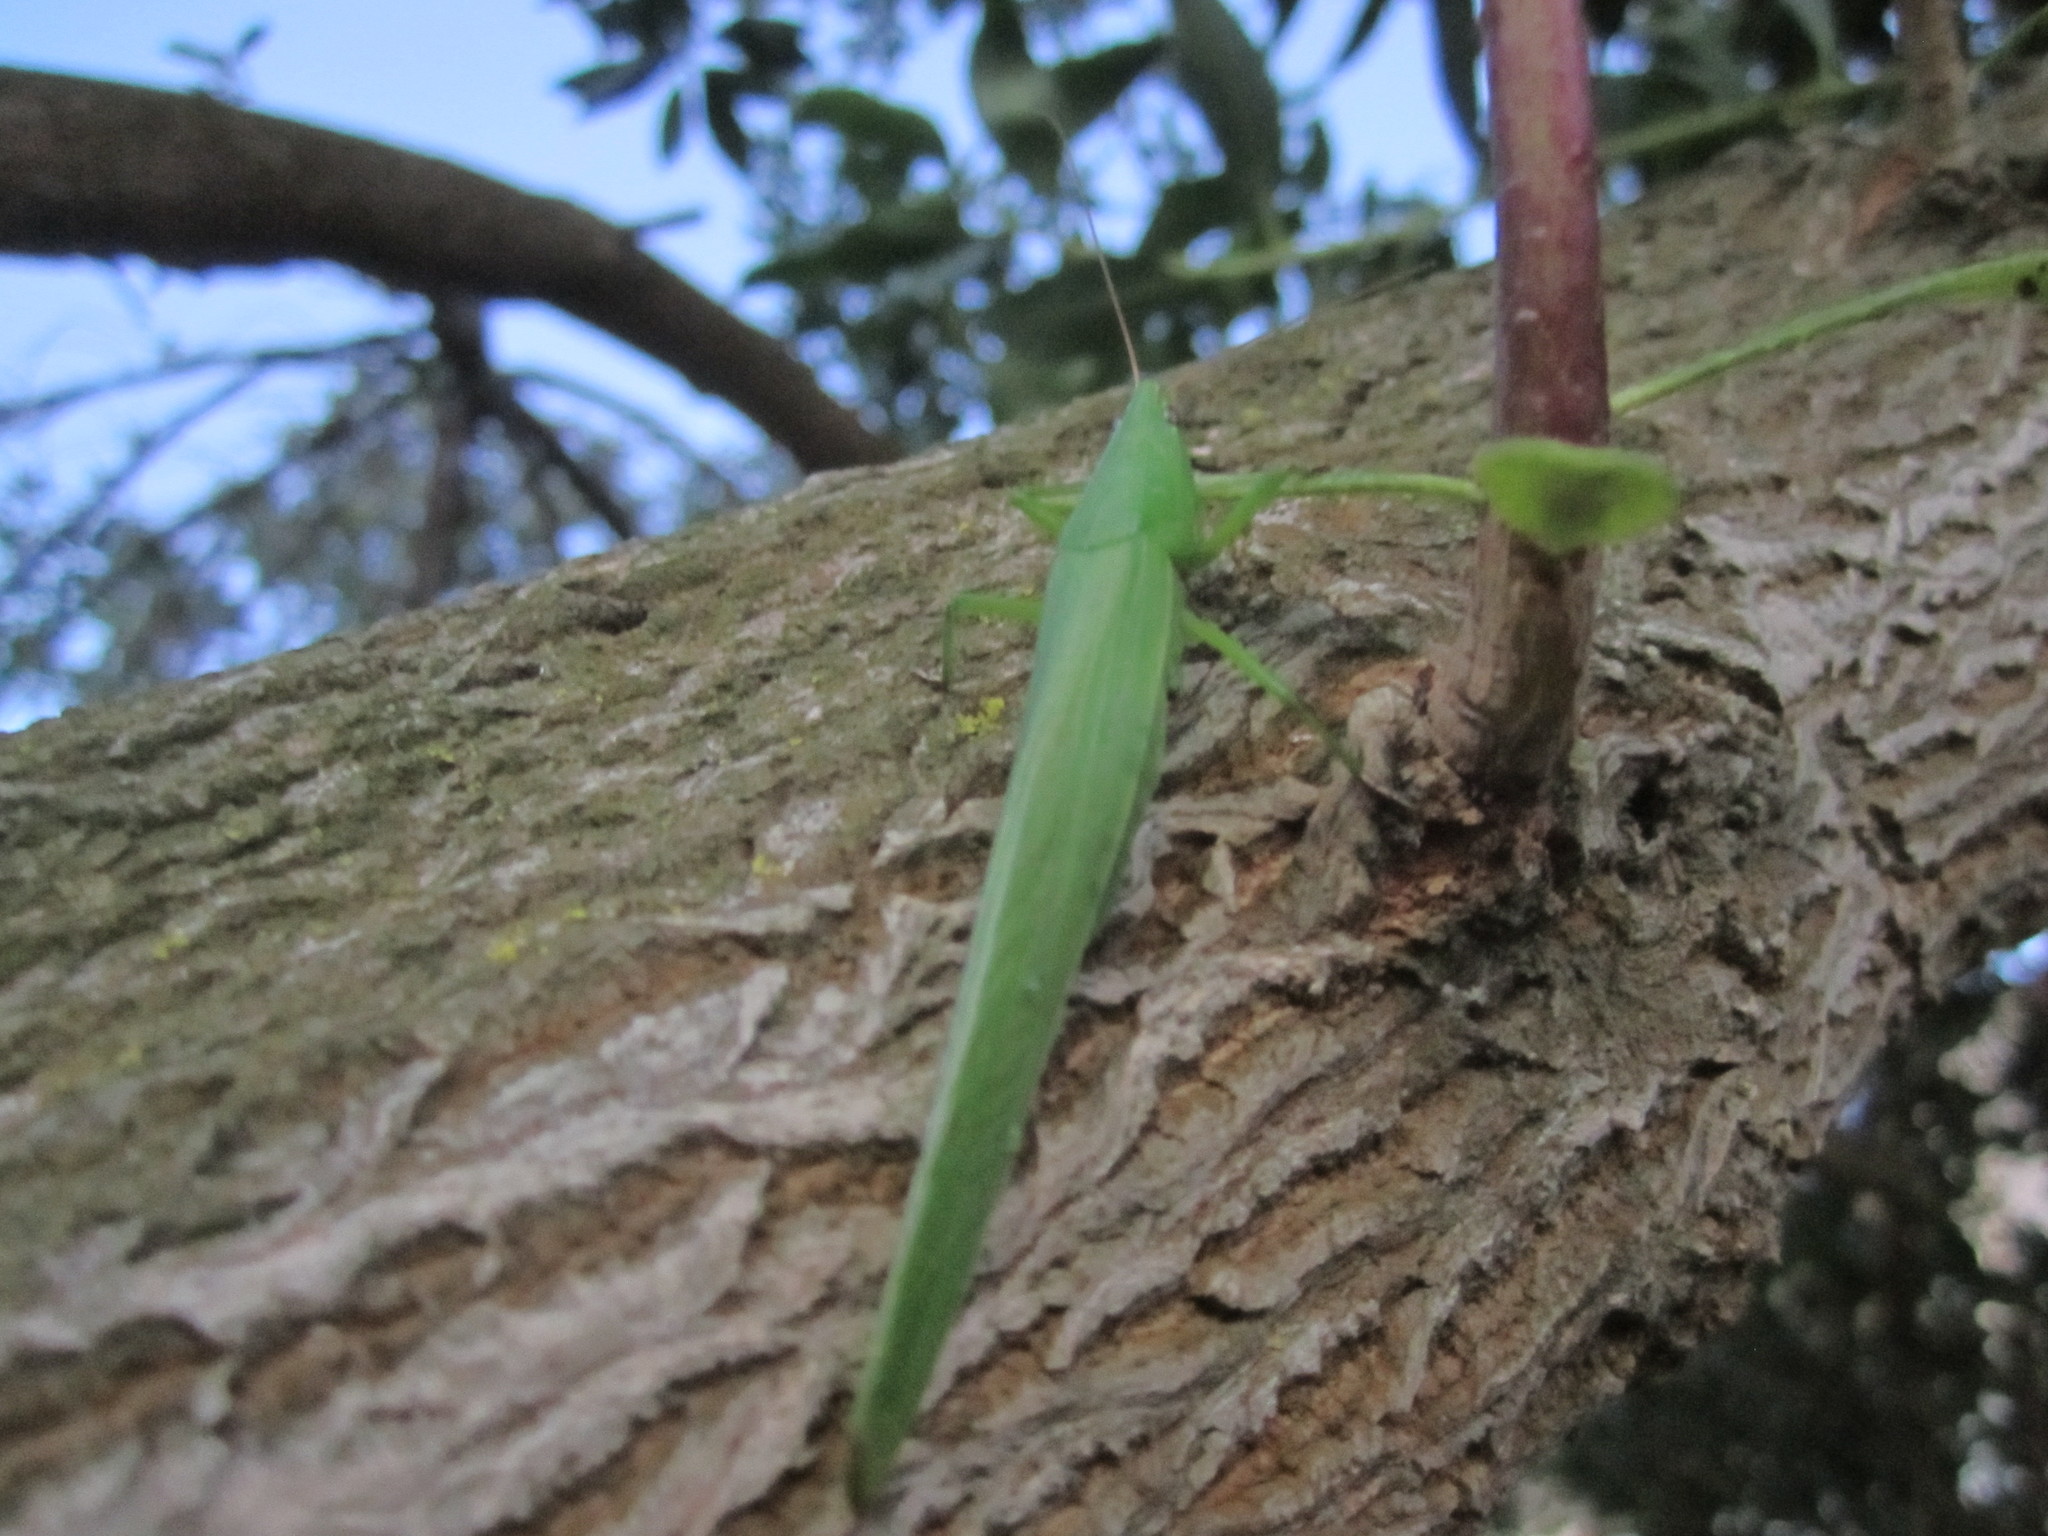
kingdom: Animalia
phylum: Arthropoda
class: Insecta
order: Orthoptera
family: Tettigoniidae
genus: Ruspolia
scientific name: Ruspolia nitidula
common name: Large conehead
